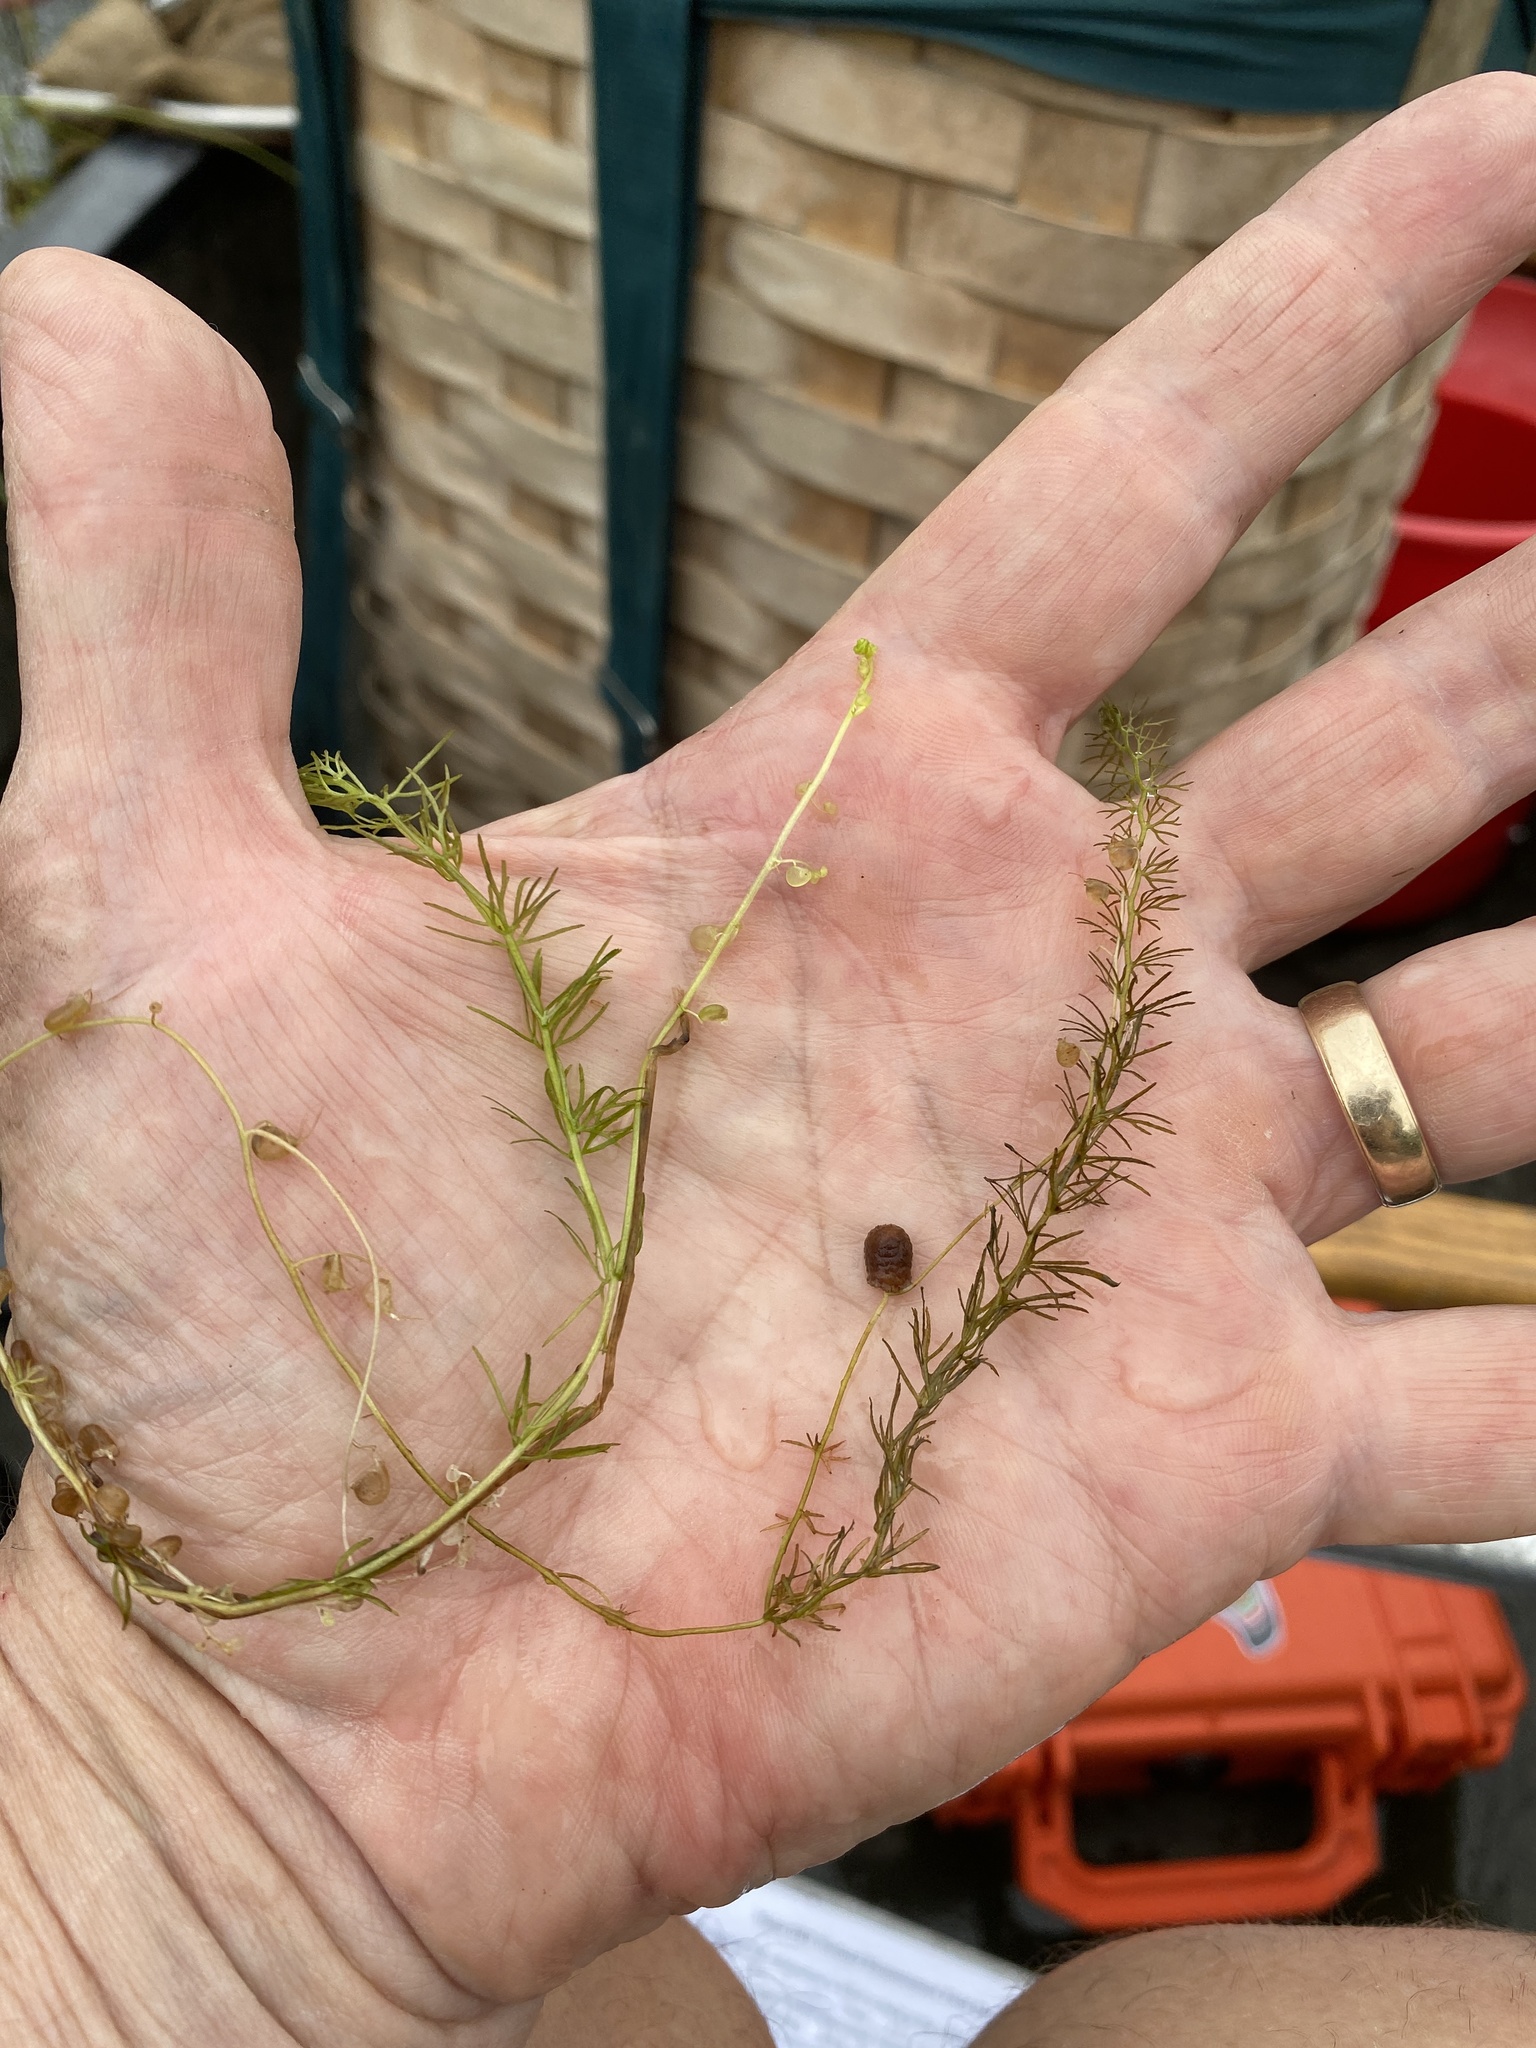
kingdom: Plantae
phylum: Tracheophyta
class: Magnoliopsida
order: Lamiales
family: Lentibulariaceae
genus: Utricularia
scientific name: Utricularia intermedia
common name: Intermediate bladderwort
